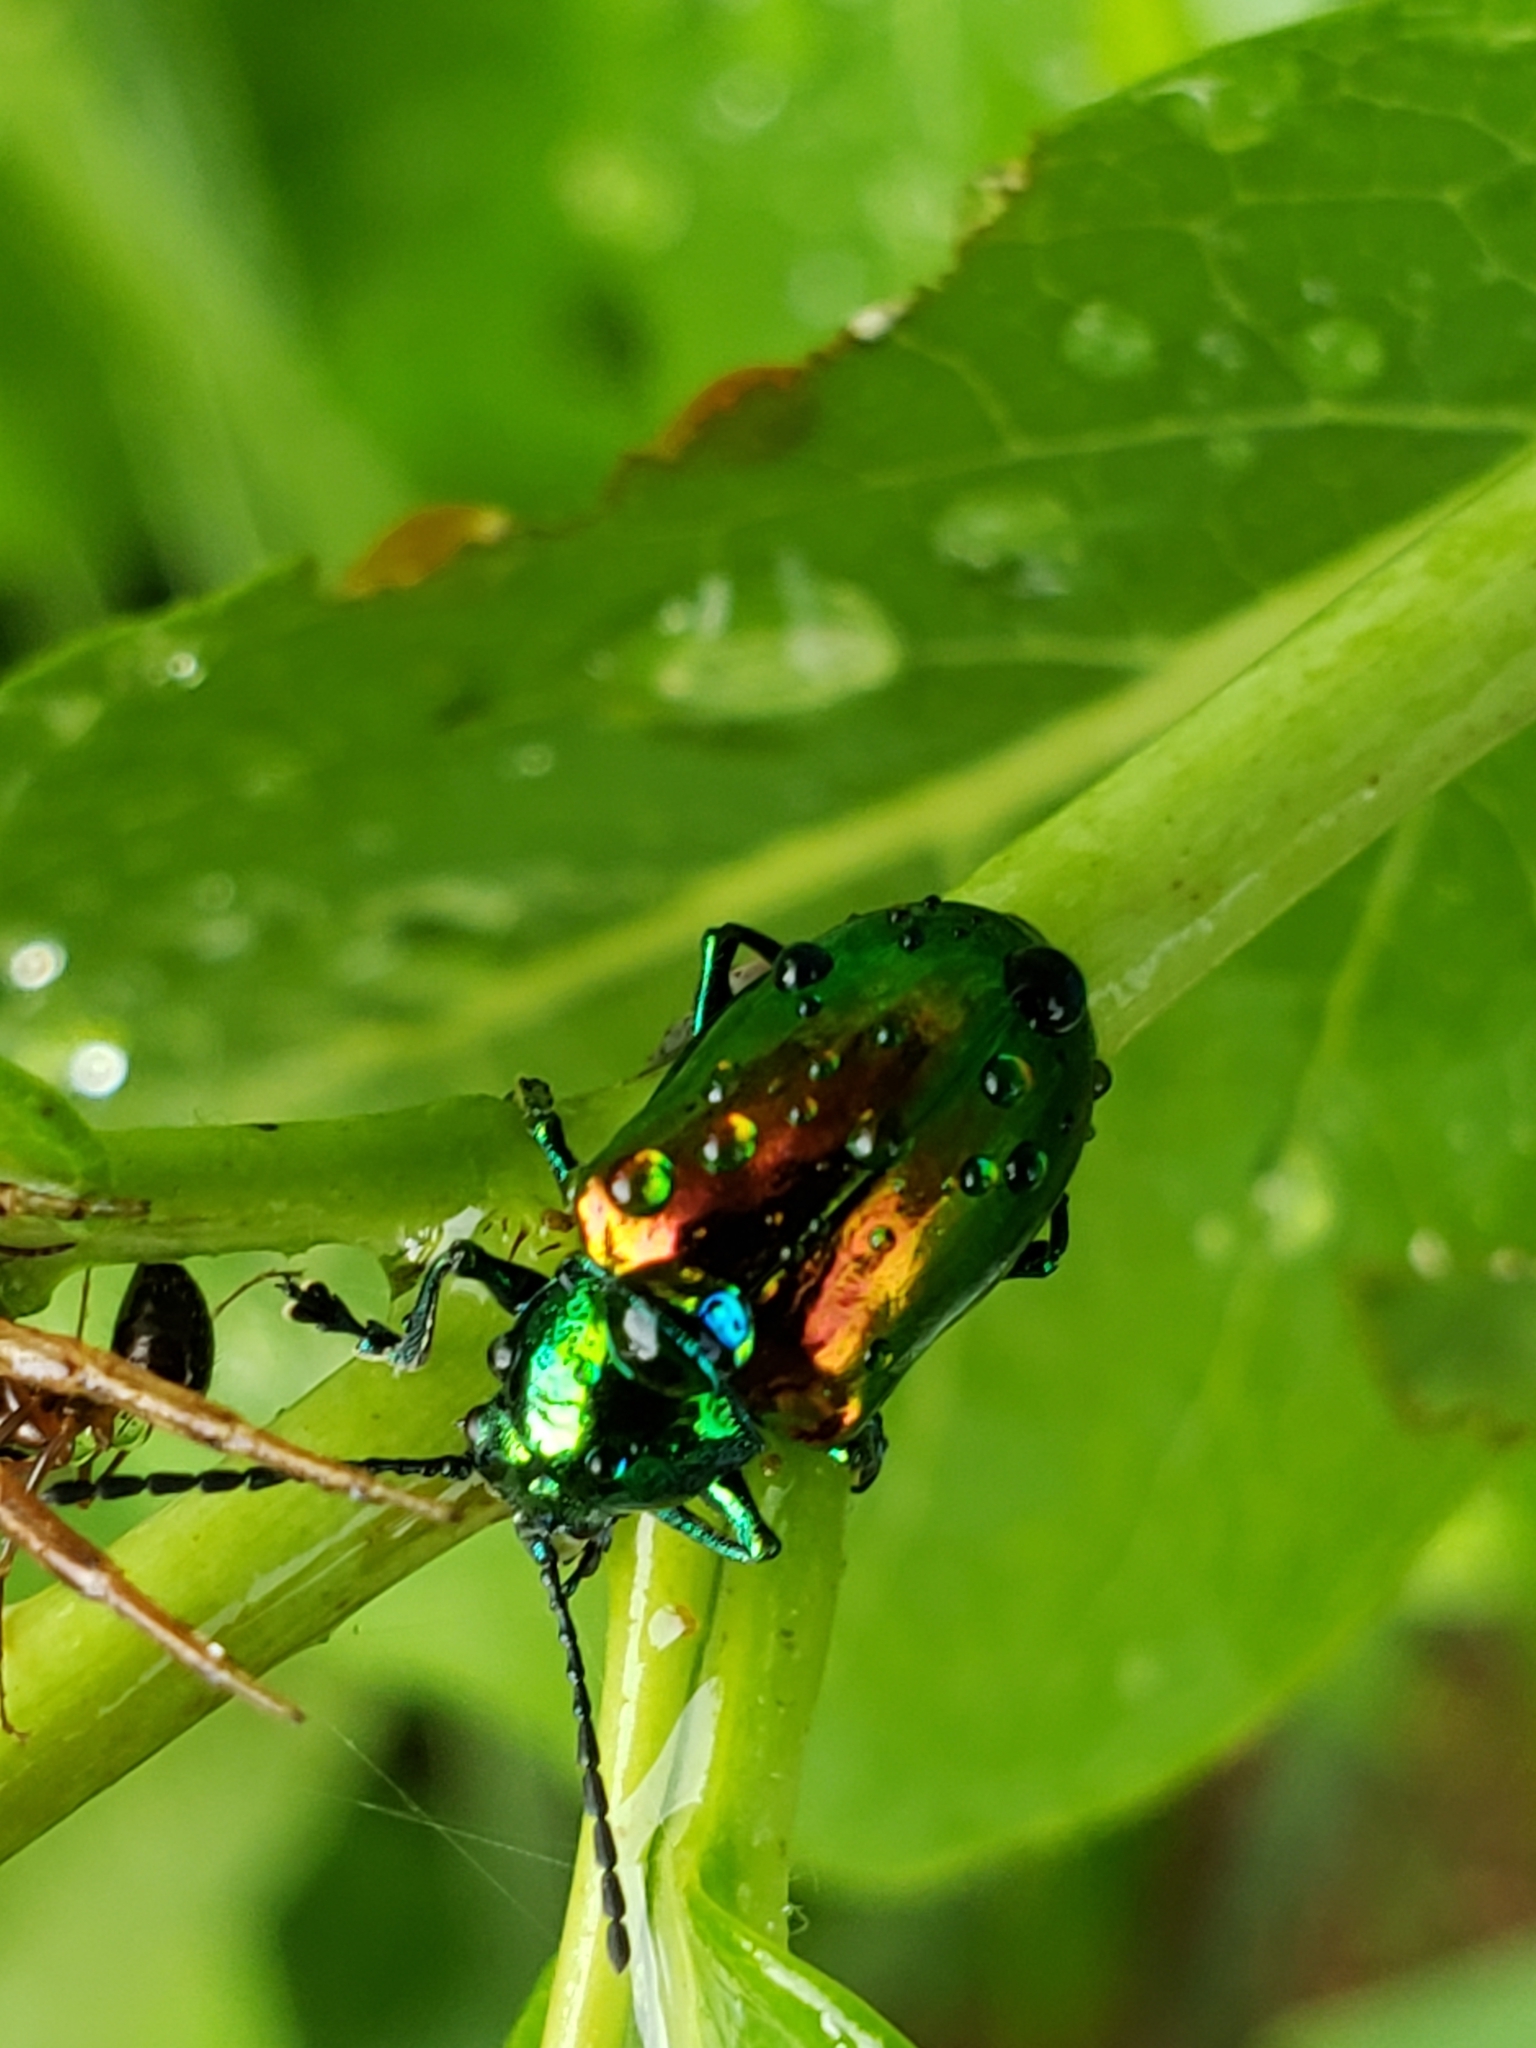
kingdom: Animalia
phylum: Arthropoda
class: Insecta
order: Coleoptera
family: Chrysomelidae
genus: Chrysochus
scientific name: Chrysochus auratus
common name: Dogbane leaf beetle
